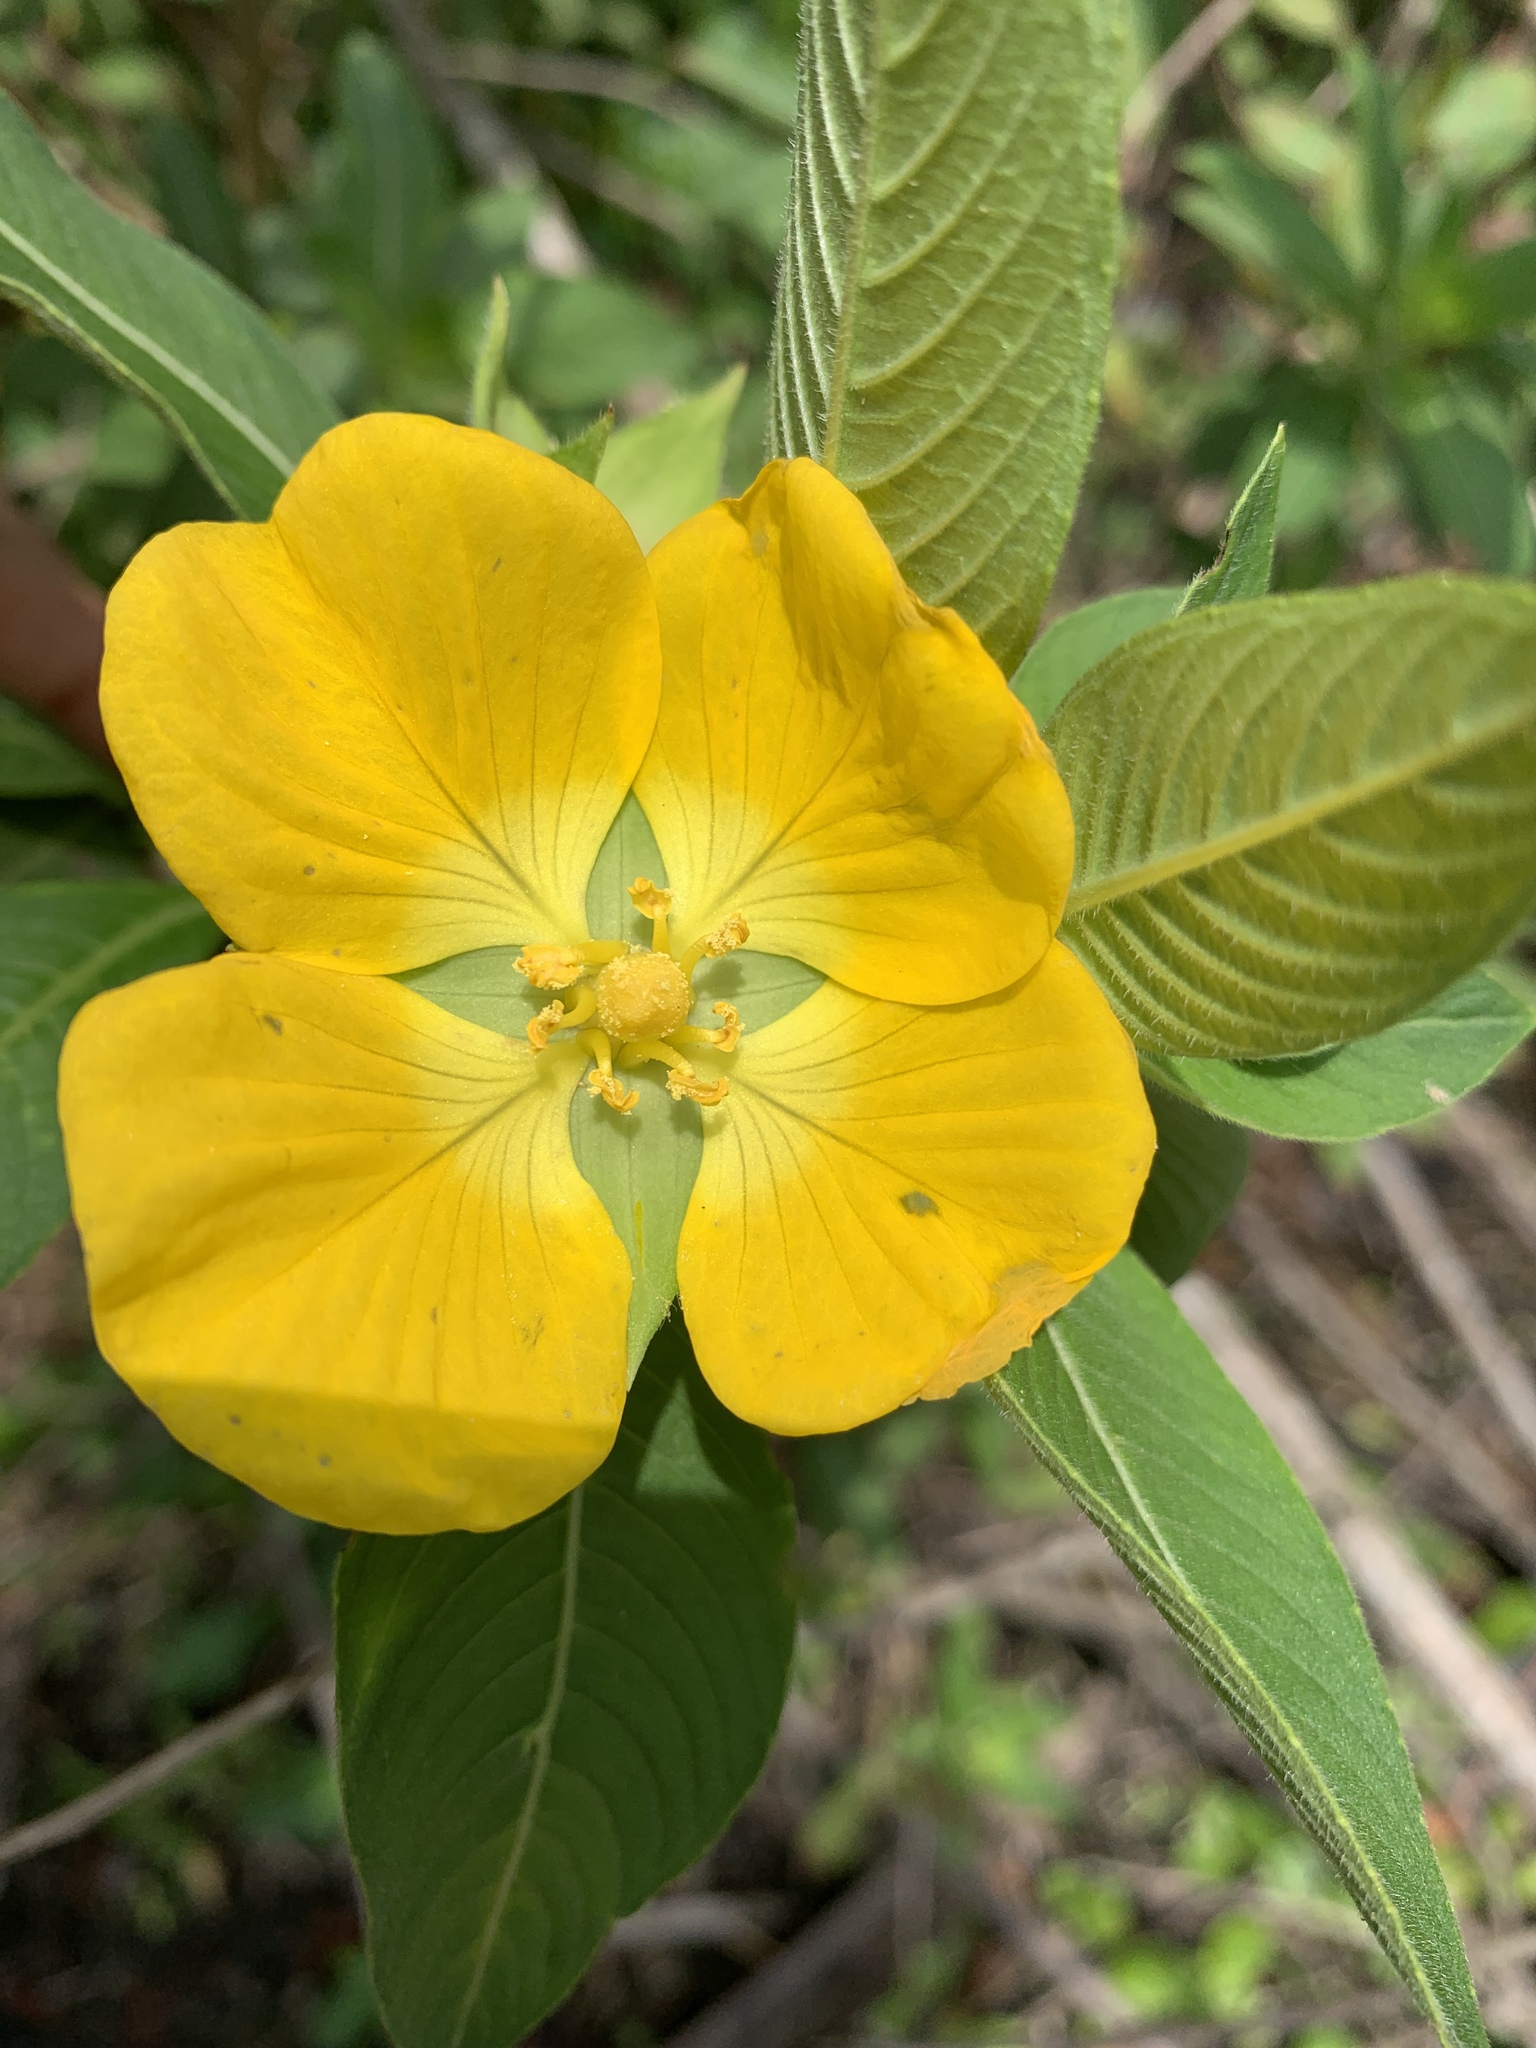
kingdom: Plantae
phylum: Tracheophyta
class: Magnoliopsida
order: Myrtales
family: Onagraceae
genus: Ludwigia
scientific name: Ludwigia peruviana
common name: Peruvian primrose-willow
